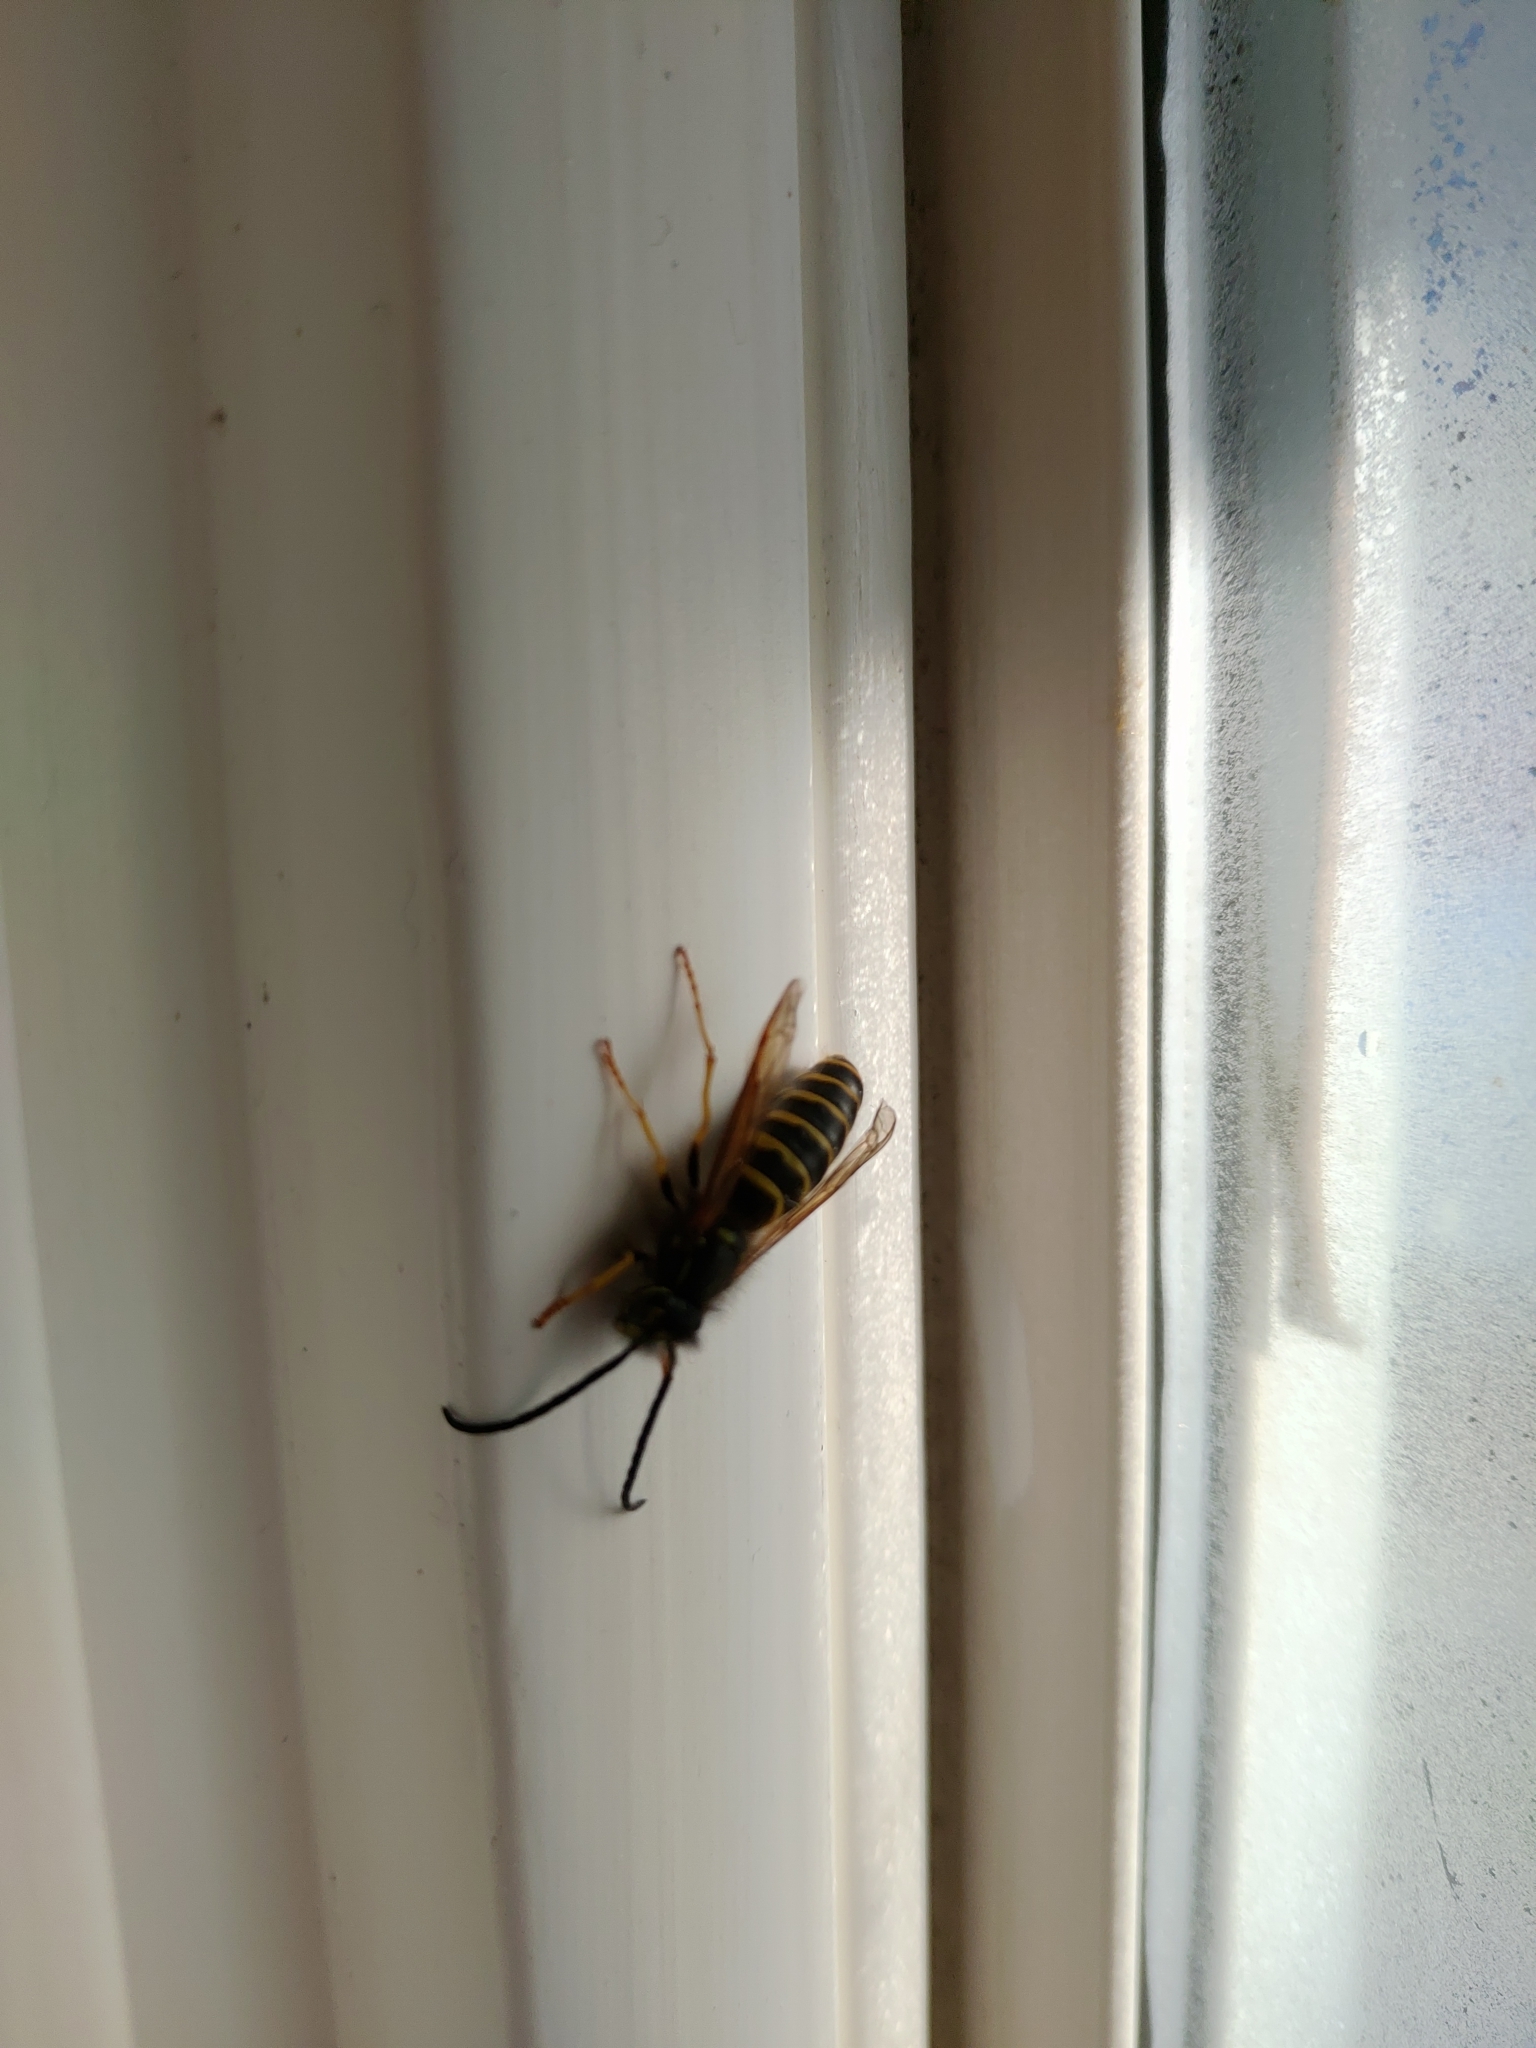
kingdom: Animalia
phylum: Arthropoda
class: Insecta
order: Hymenoptera
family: Vespidae
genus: Vespula
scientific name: Vespula alascensis
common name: Alaska yellowjacket
